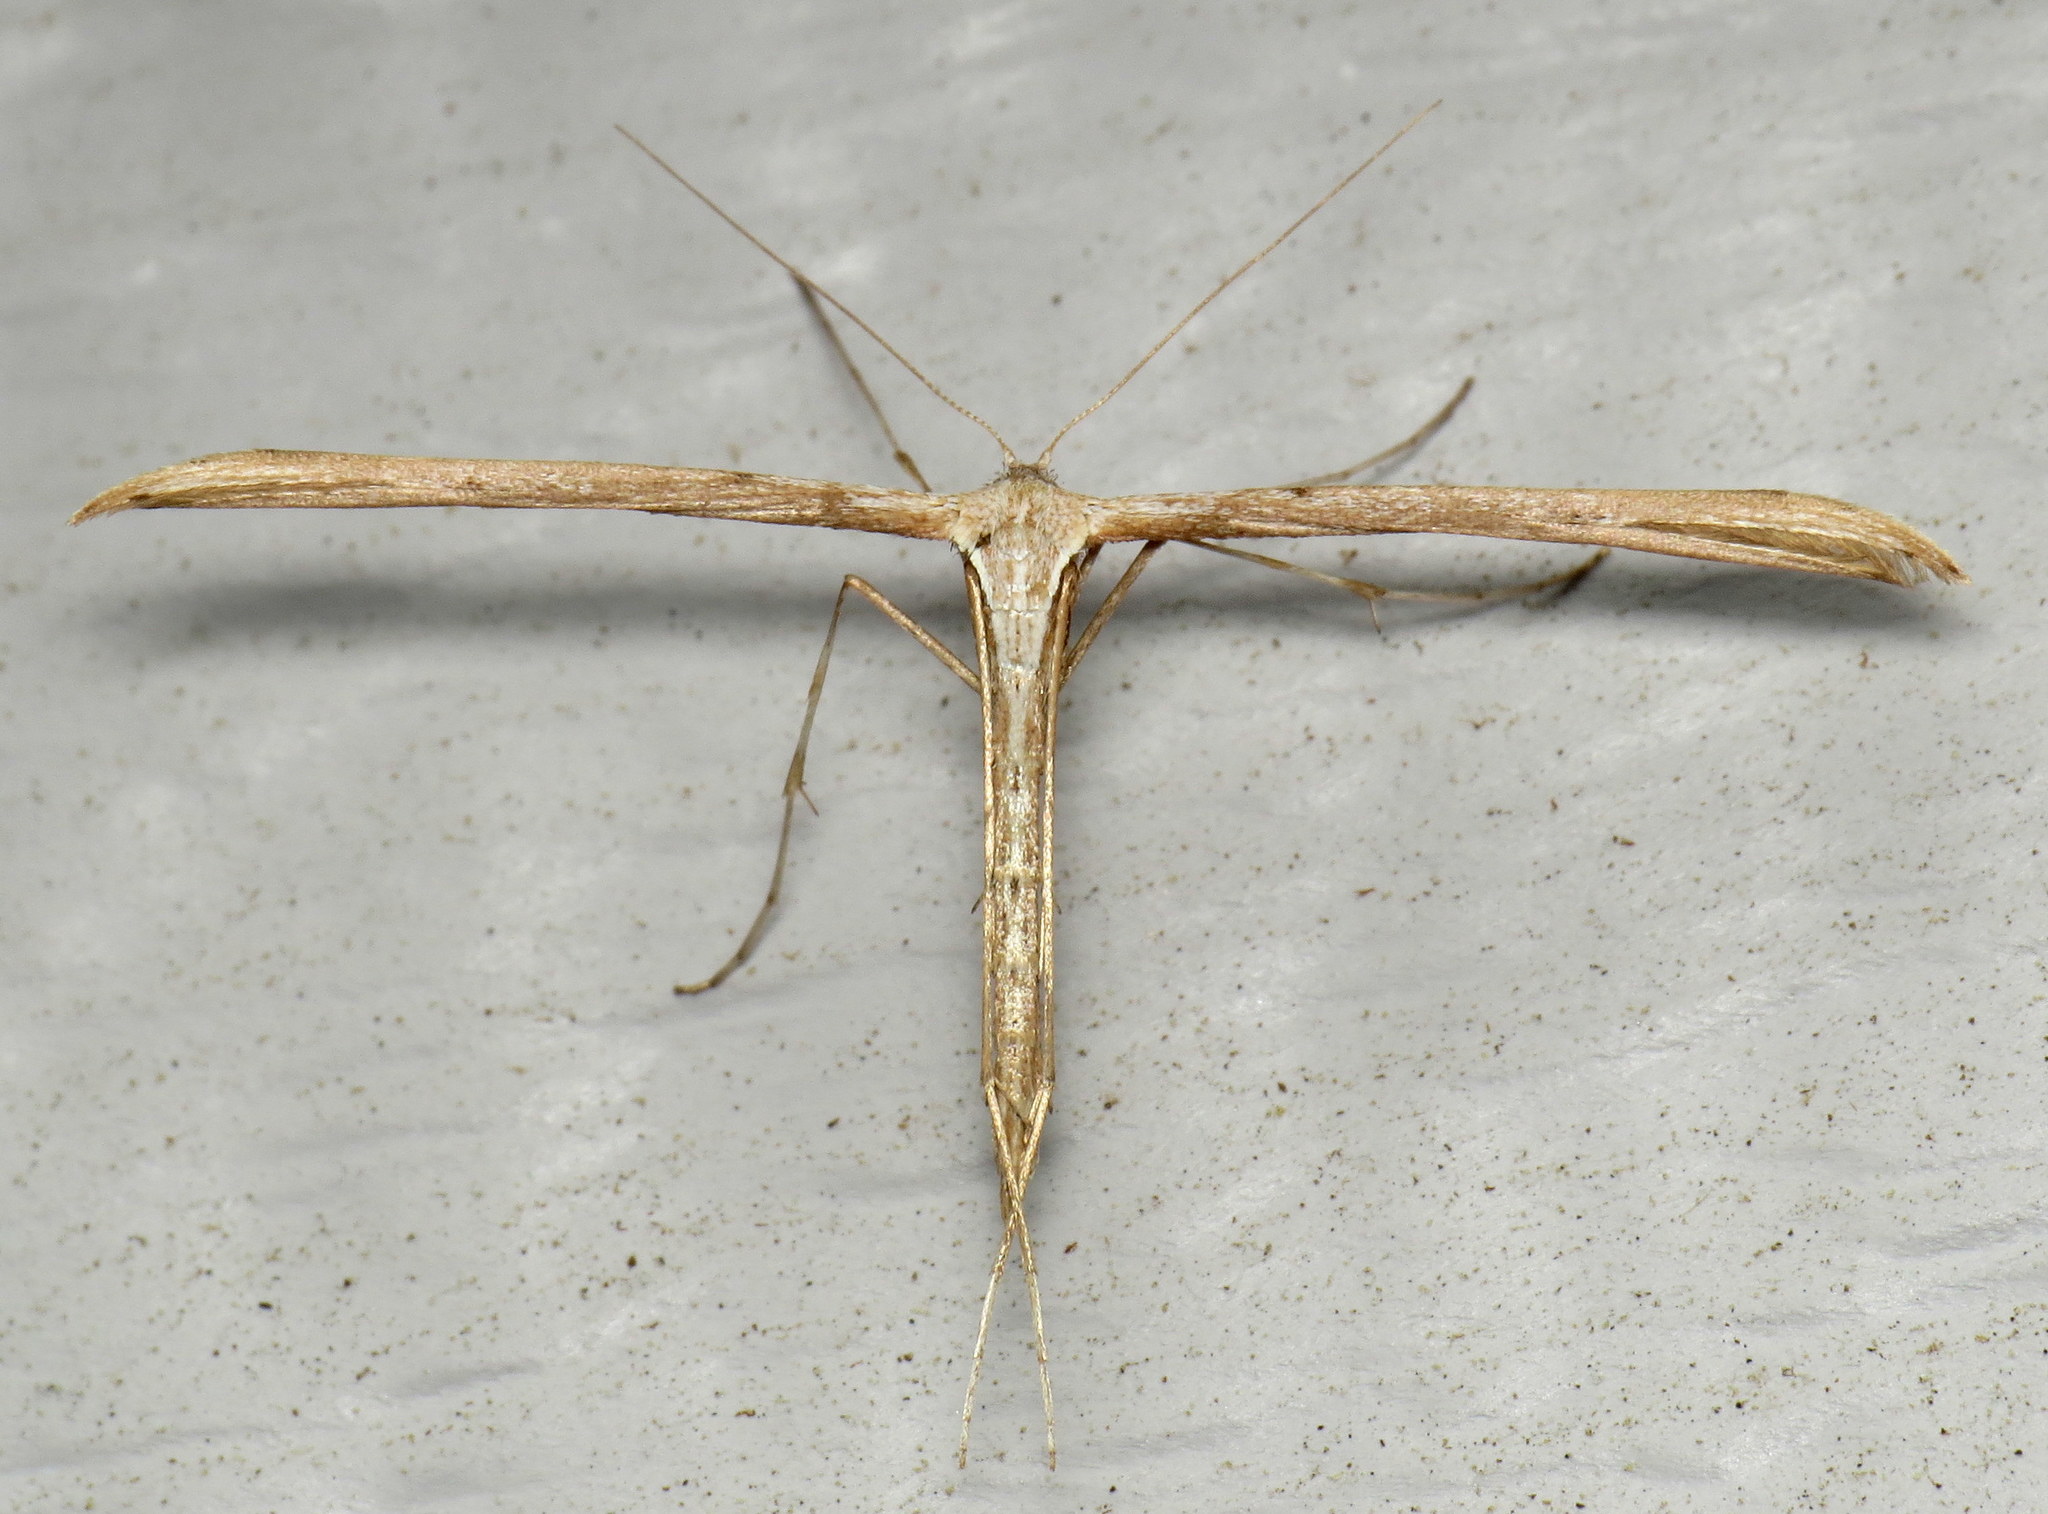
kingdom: Animalia
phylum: Arthropoda
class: Insecta
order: Lepidoptera
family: Pterophoridae
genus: Emmelina
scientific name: Emmelina monodactyla
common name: Common plume
